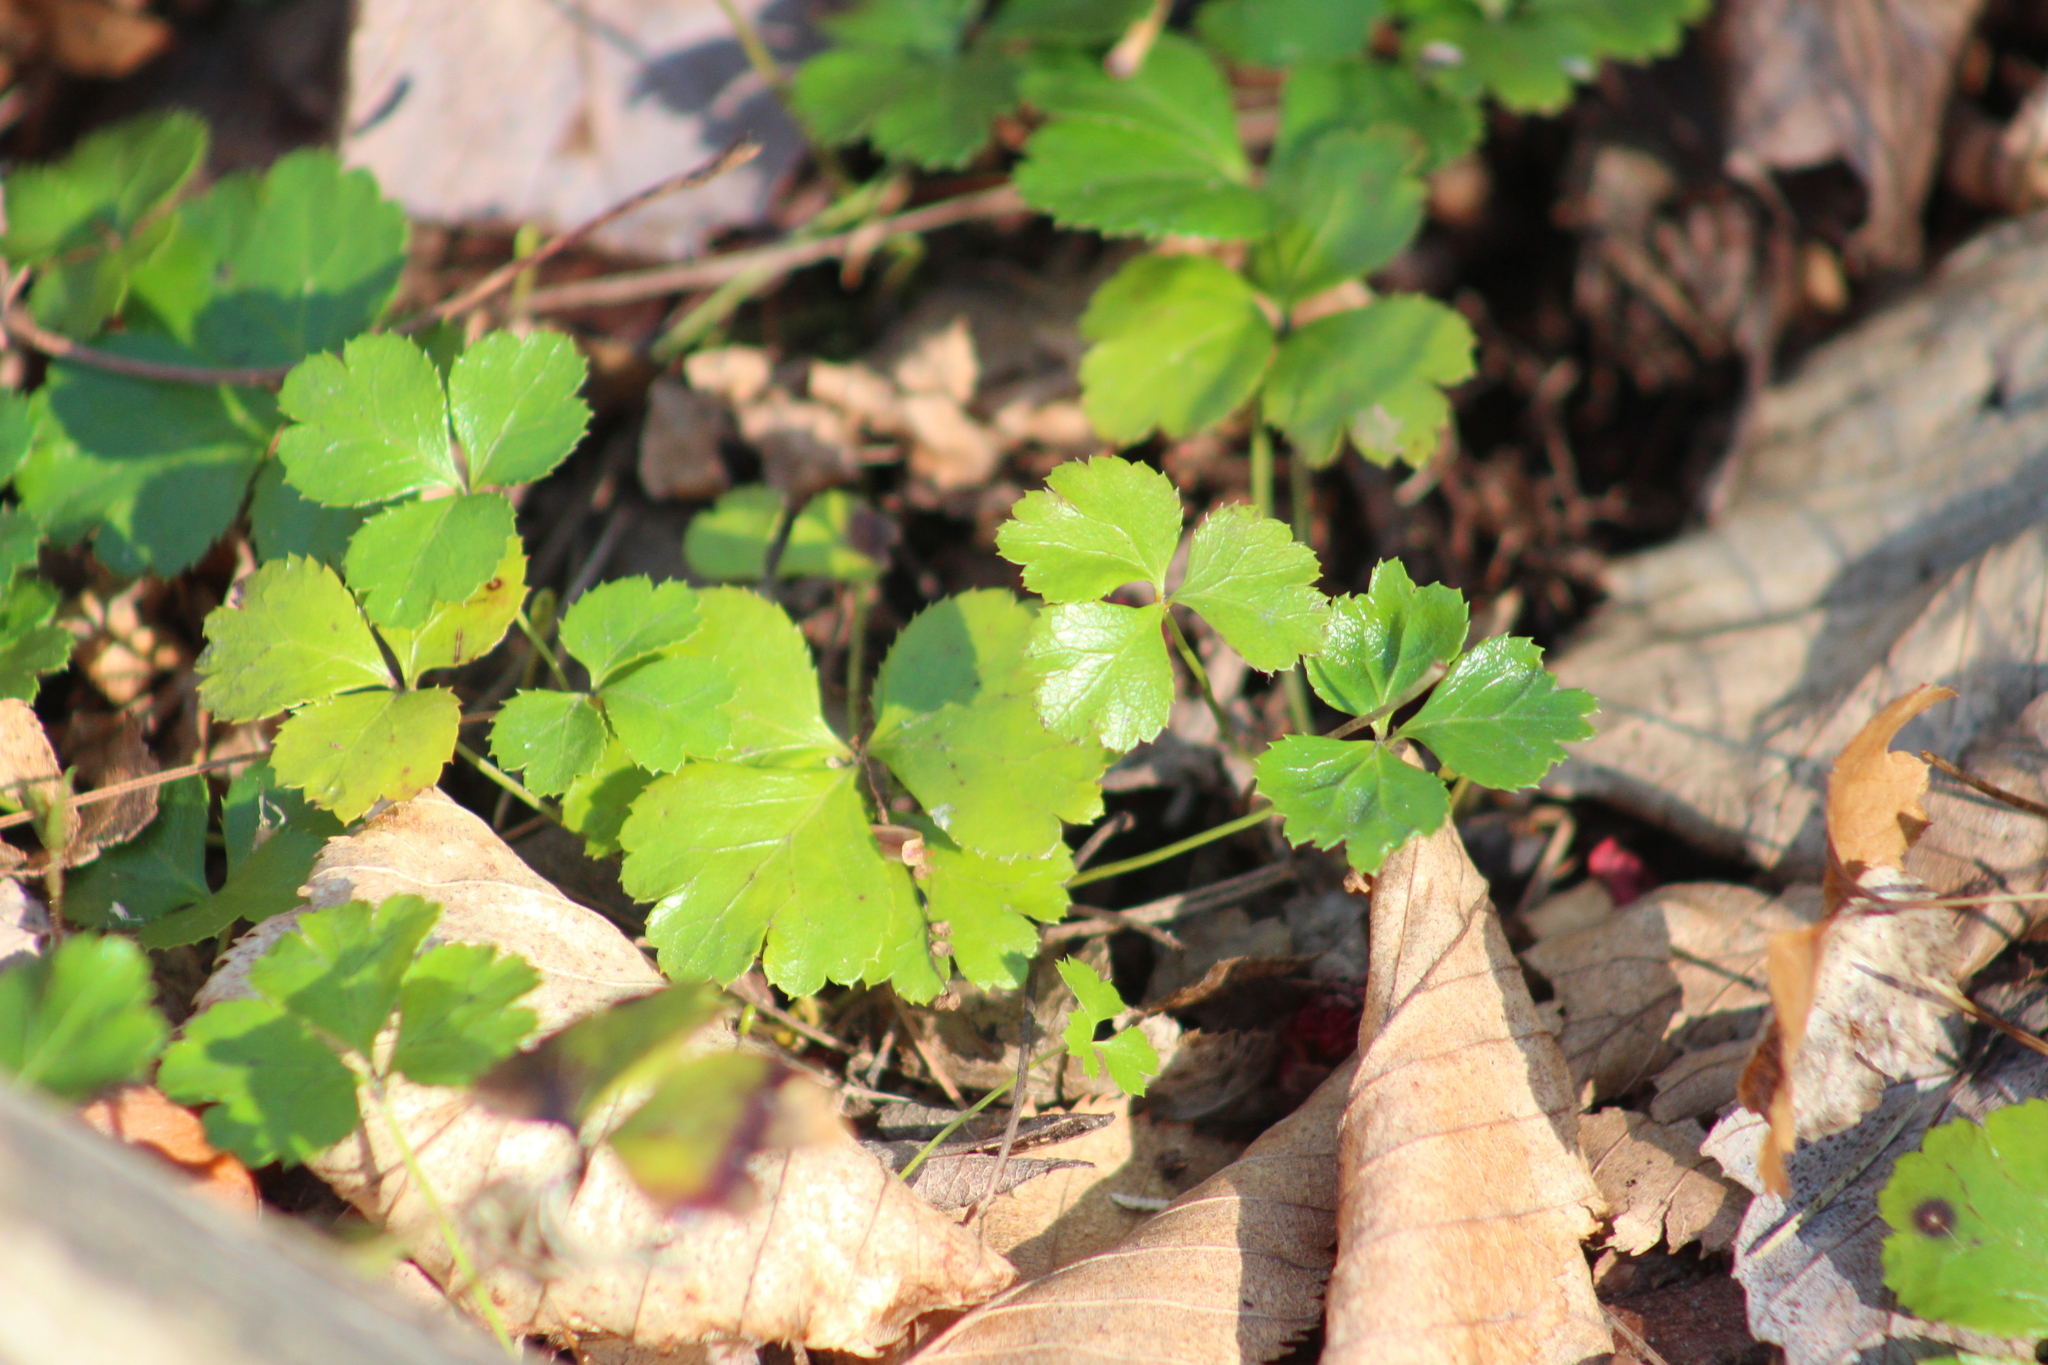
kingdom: Plantae
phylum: Tracheophyta
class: Magnoliopsida
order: Ranunculales
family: Ranunculaceae
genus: Coptis
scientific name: Coptis trifolia
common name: Canker-root
